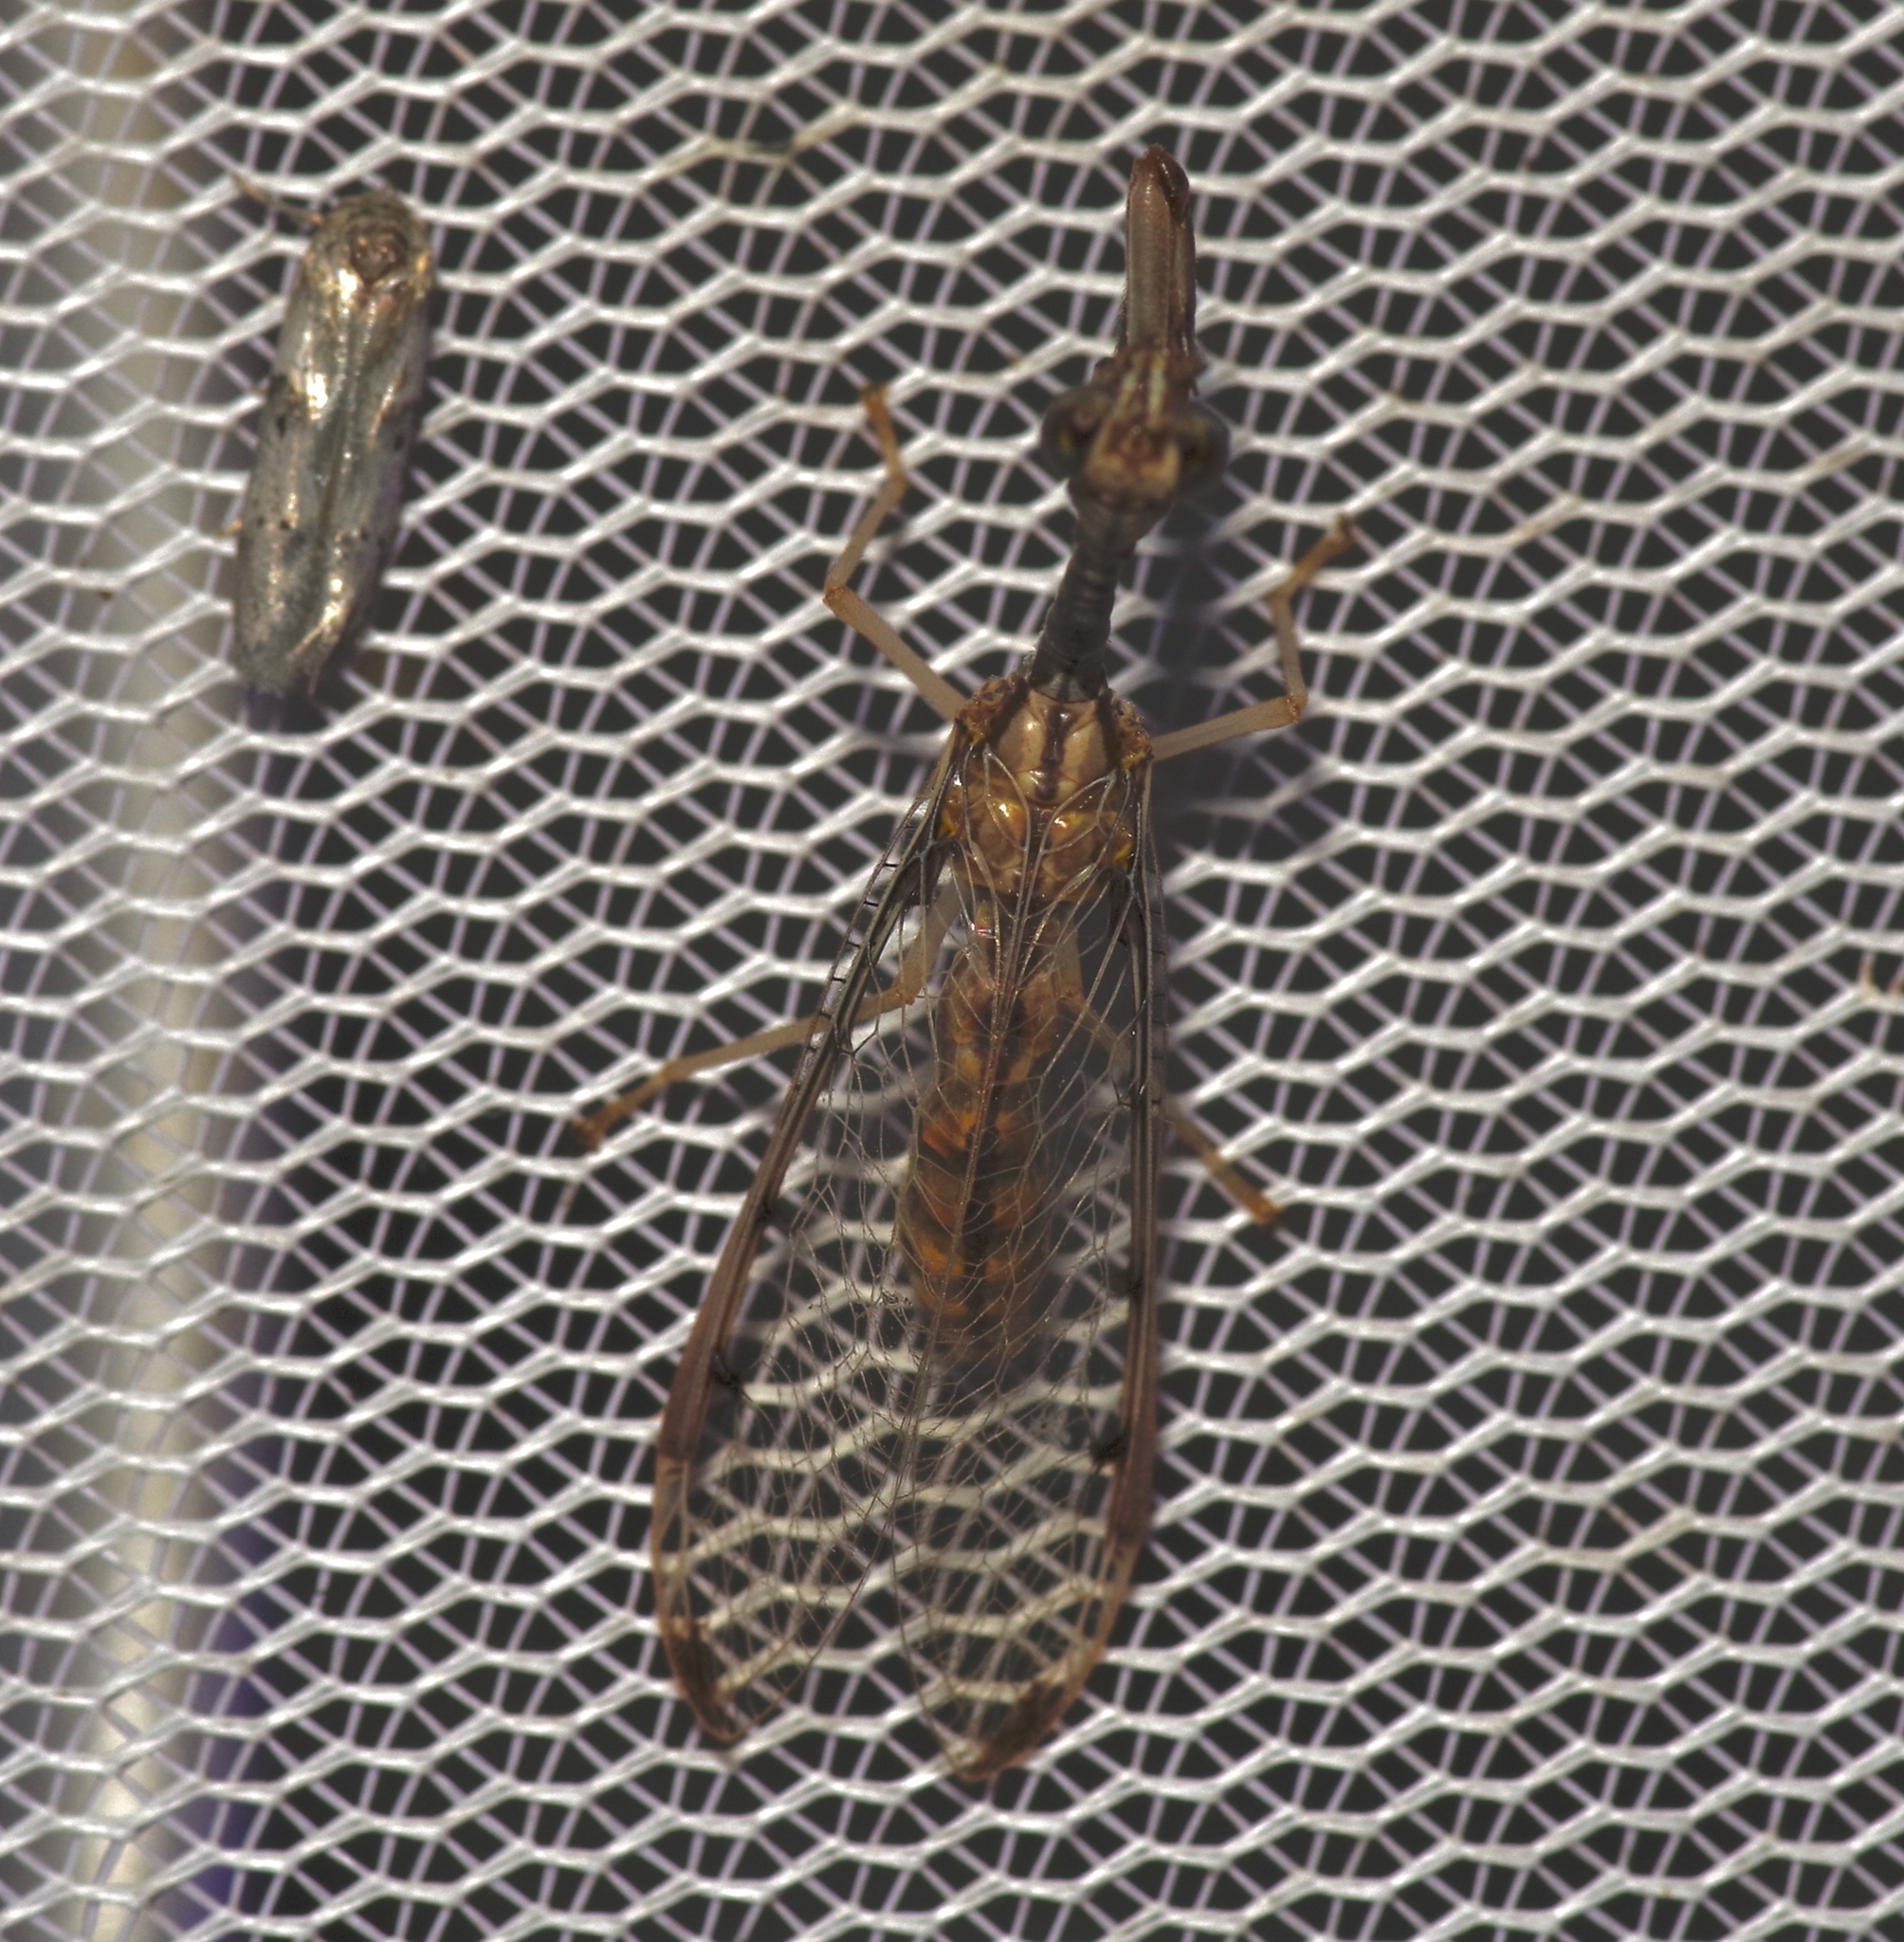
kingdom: Animalia
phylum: Arthropoda
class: Insecta
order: Neuroptera
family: Mantispidae
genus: Dicromantispa
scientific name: Dicromantispa interrupta
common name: Four-spotted mantidfly
